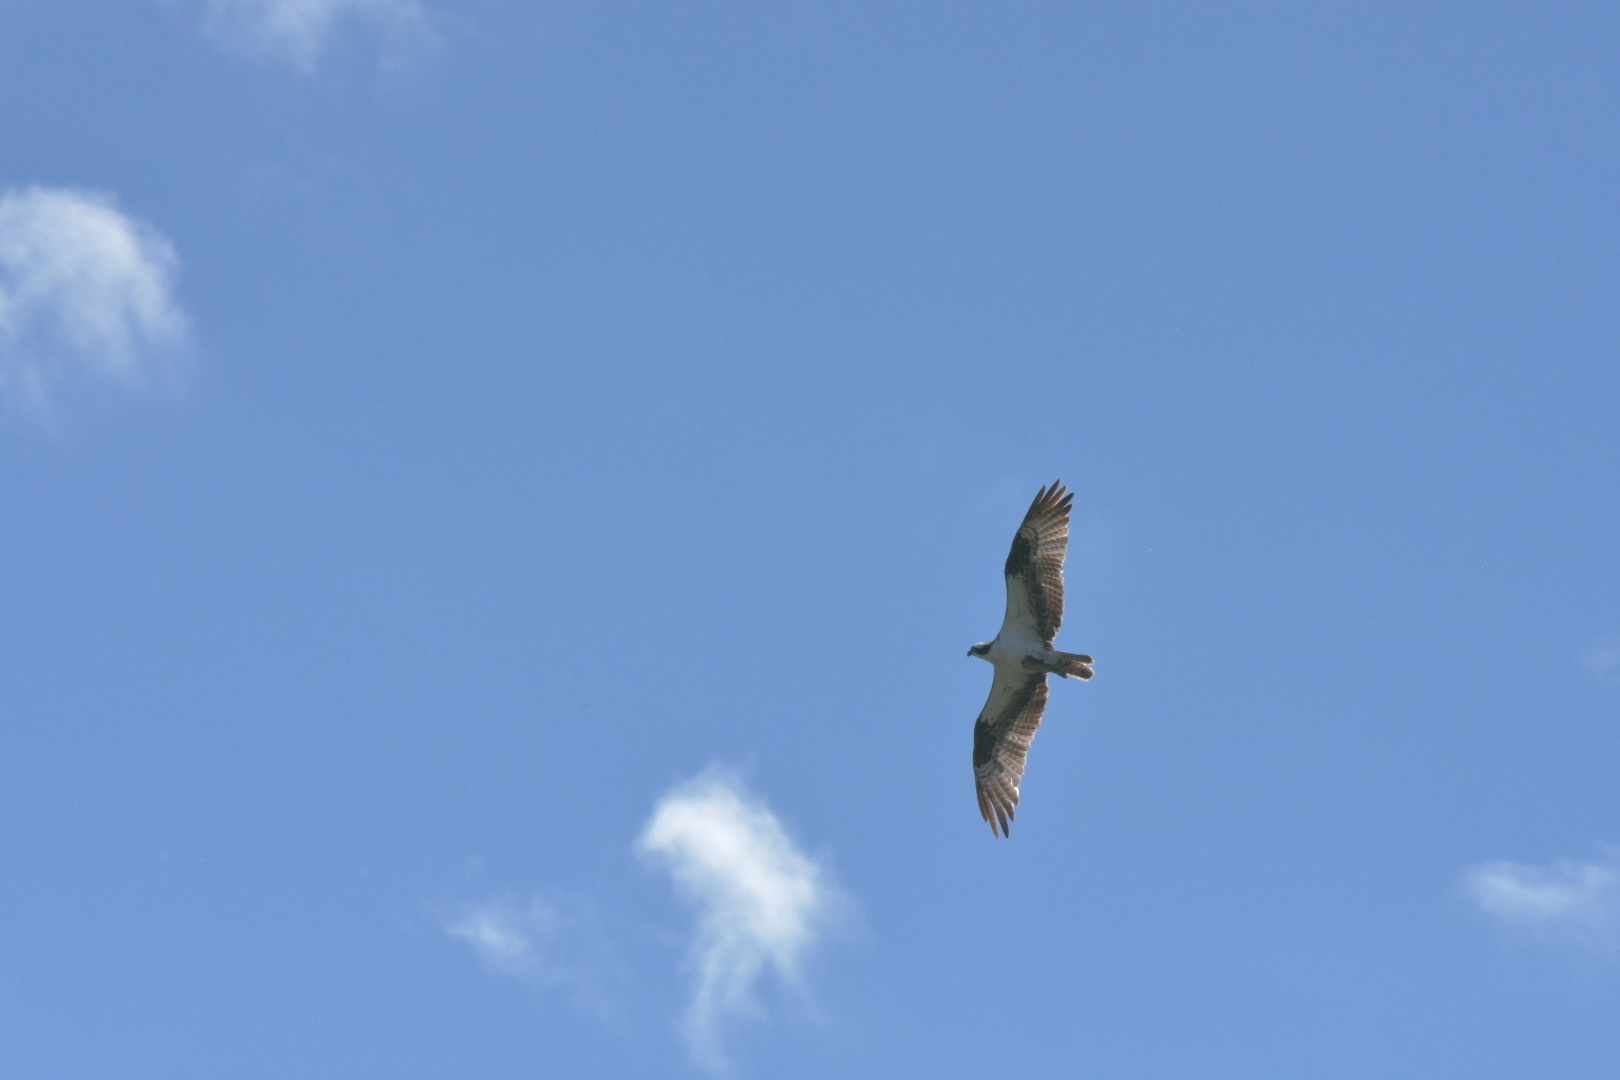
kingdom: Animalia
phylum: Chordata
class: Aves
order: Accipitriformes
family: Pandionidae
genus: Pandion
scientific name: Pandion haliaetus
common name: Osprey
